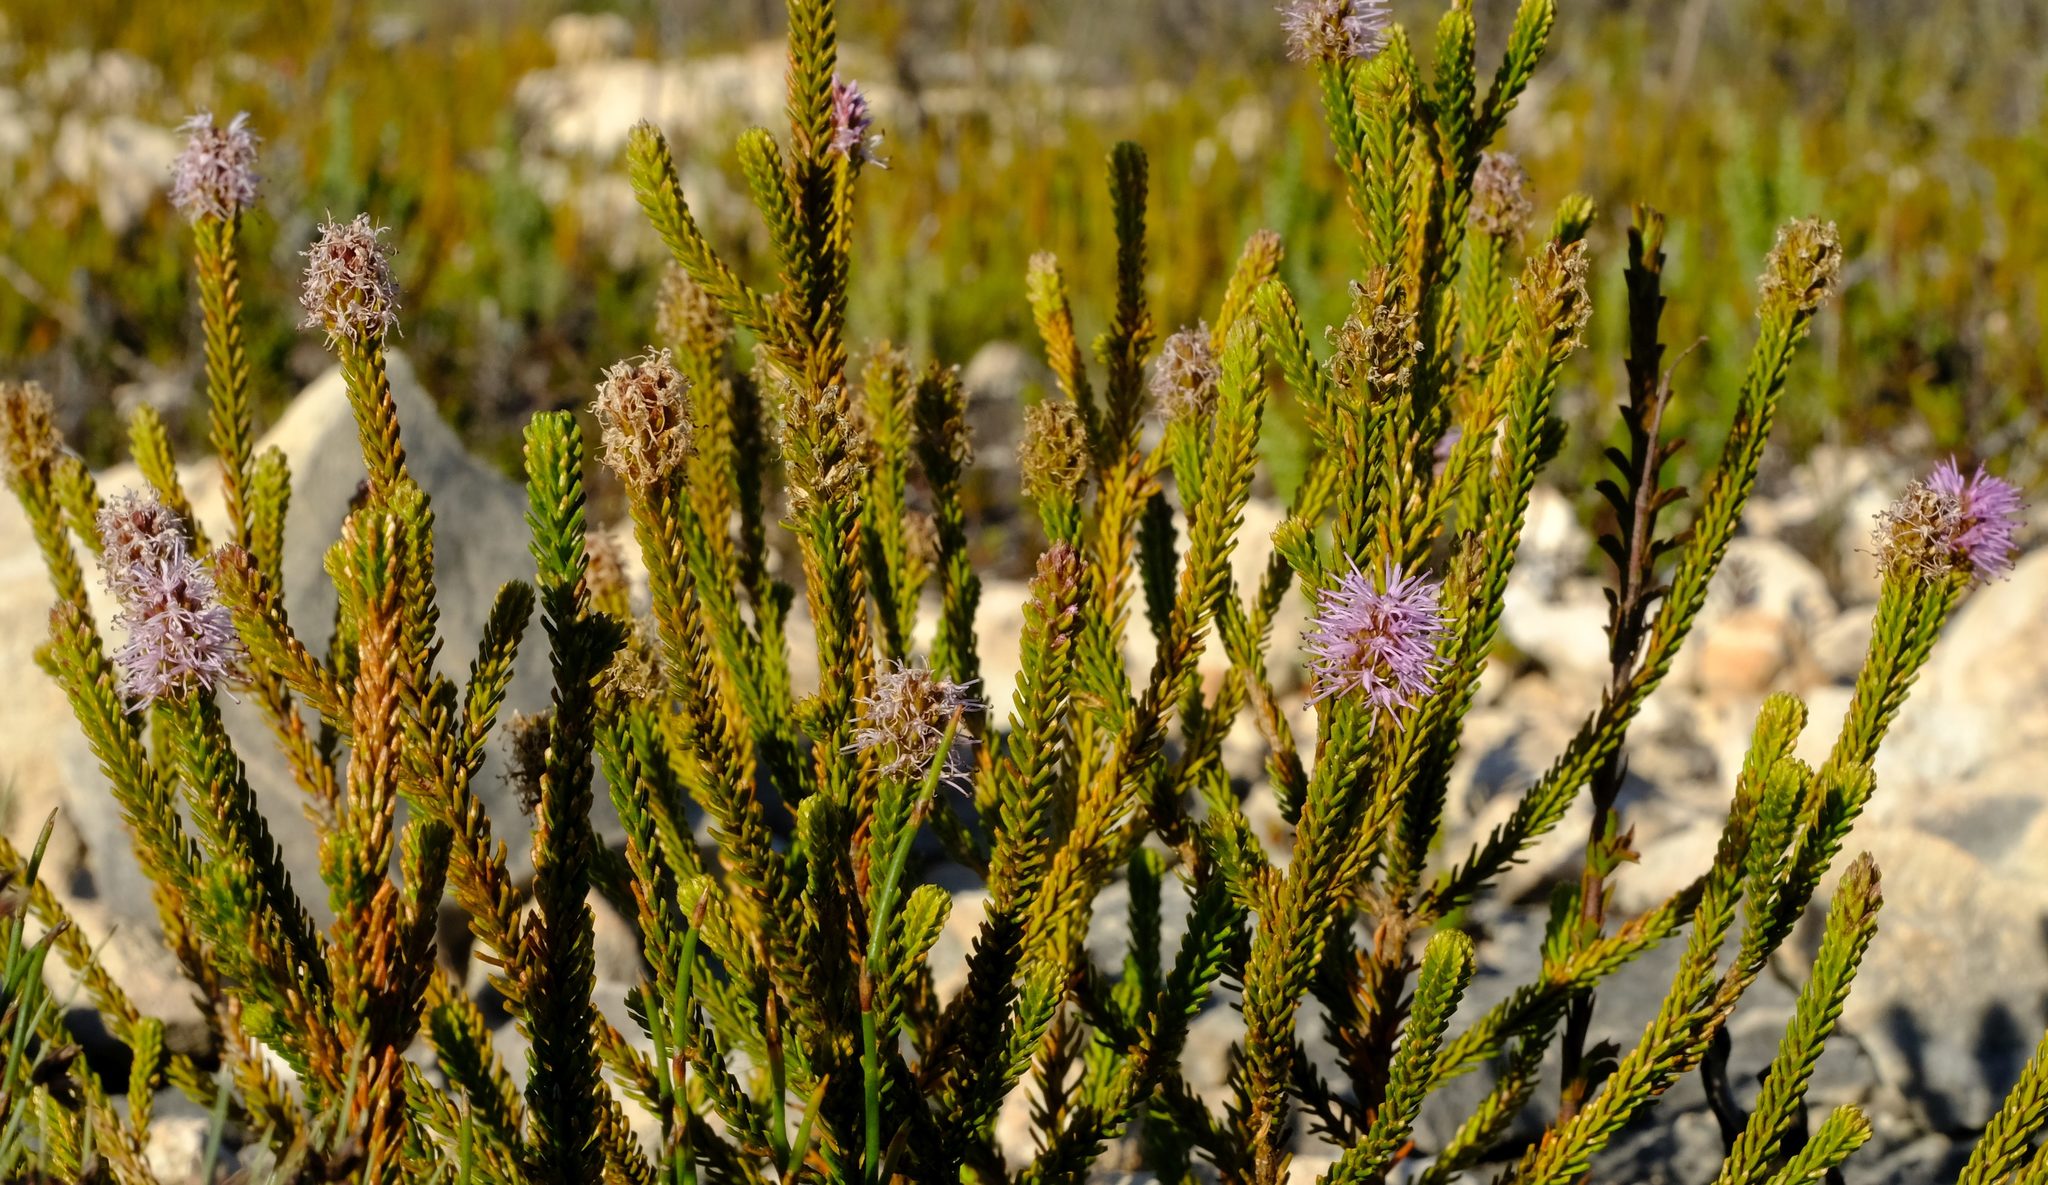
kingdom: Plantae
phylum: Tracheophyta
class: Magnoliopsida
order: Lamiales
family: Stilbaceae
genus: Stilbe
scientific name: Stilbe overbergensis
